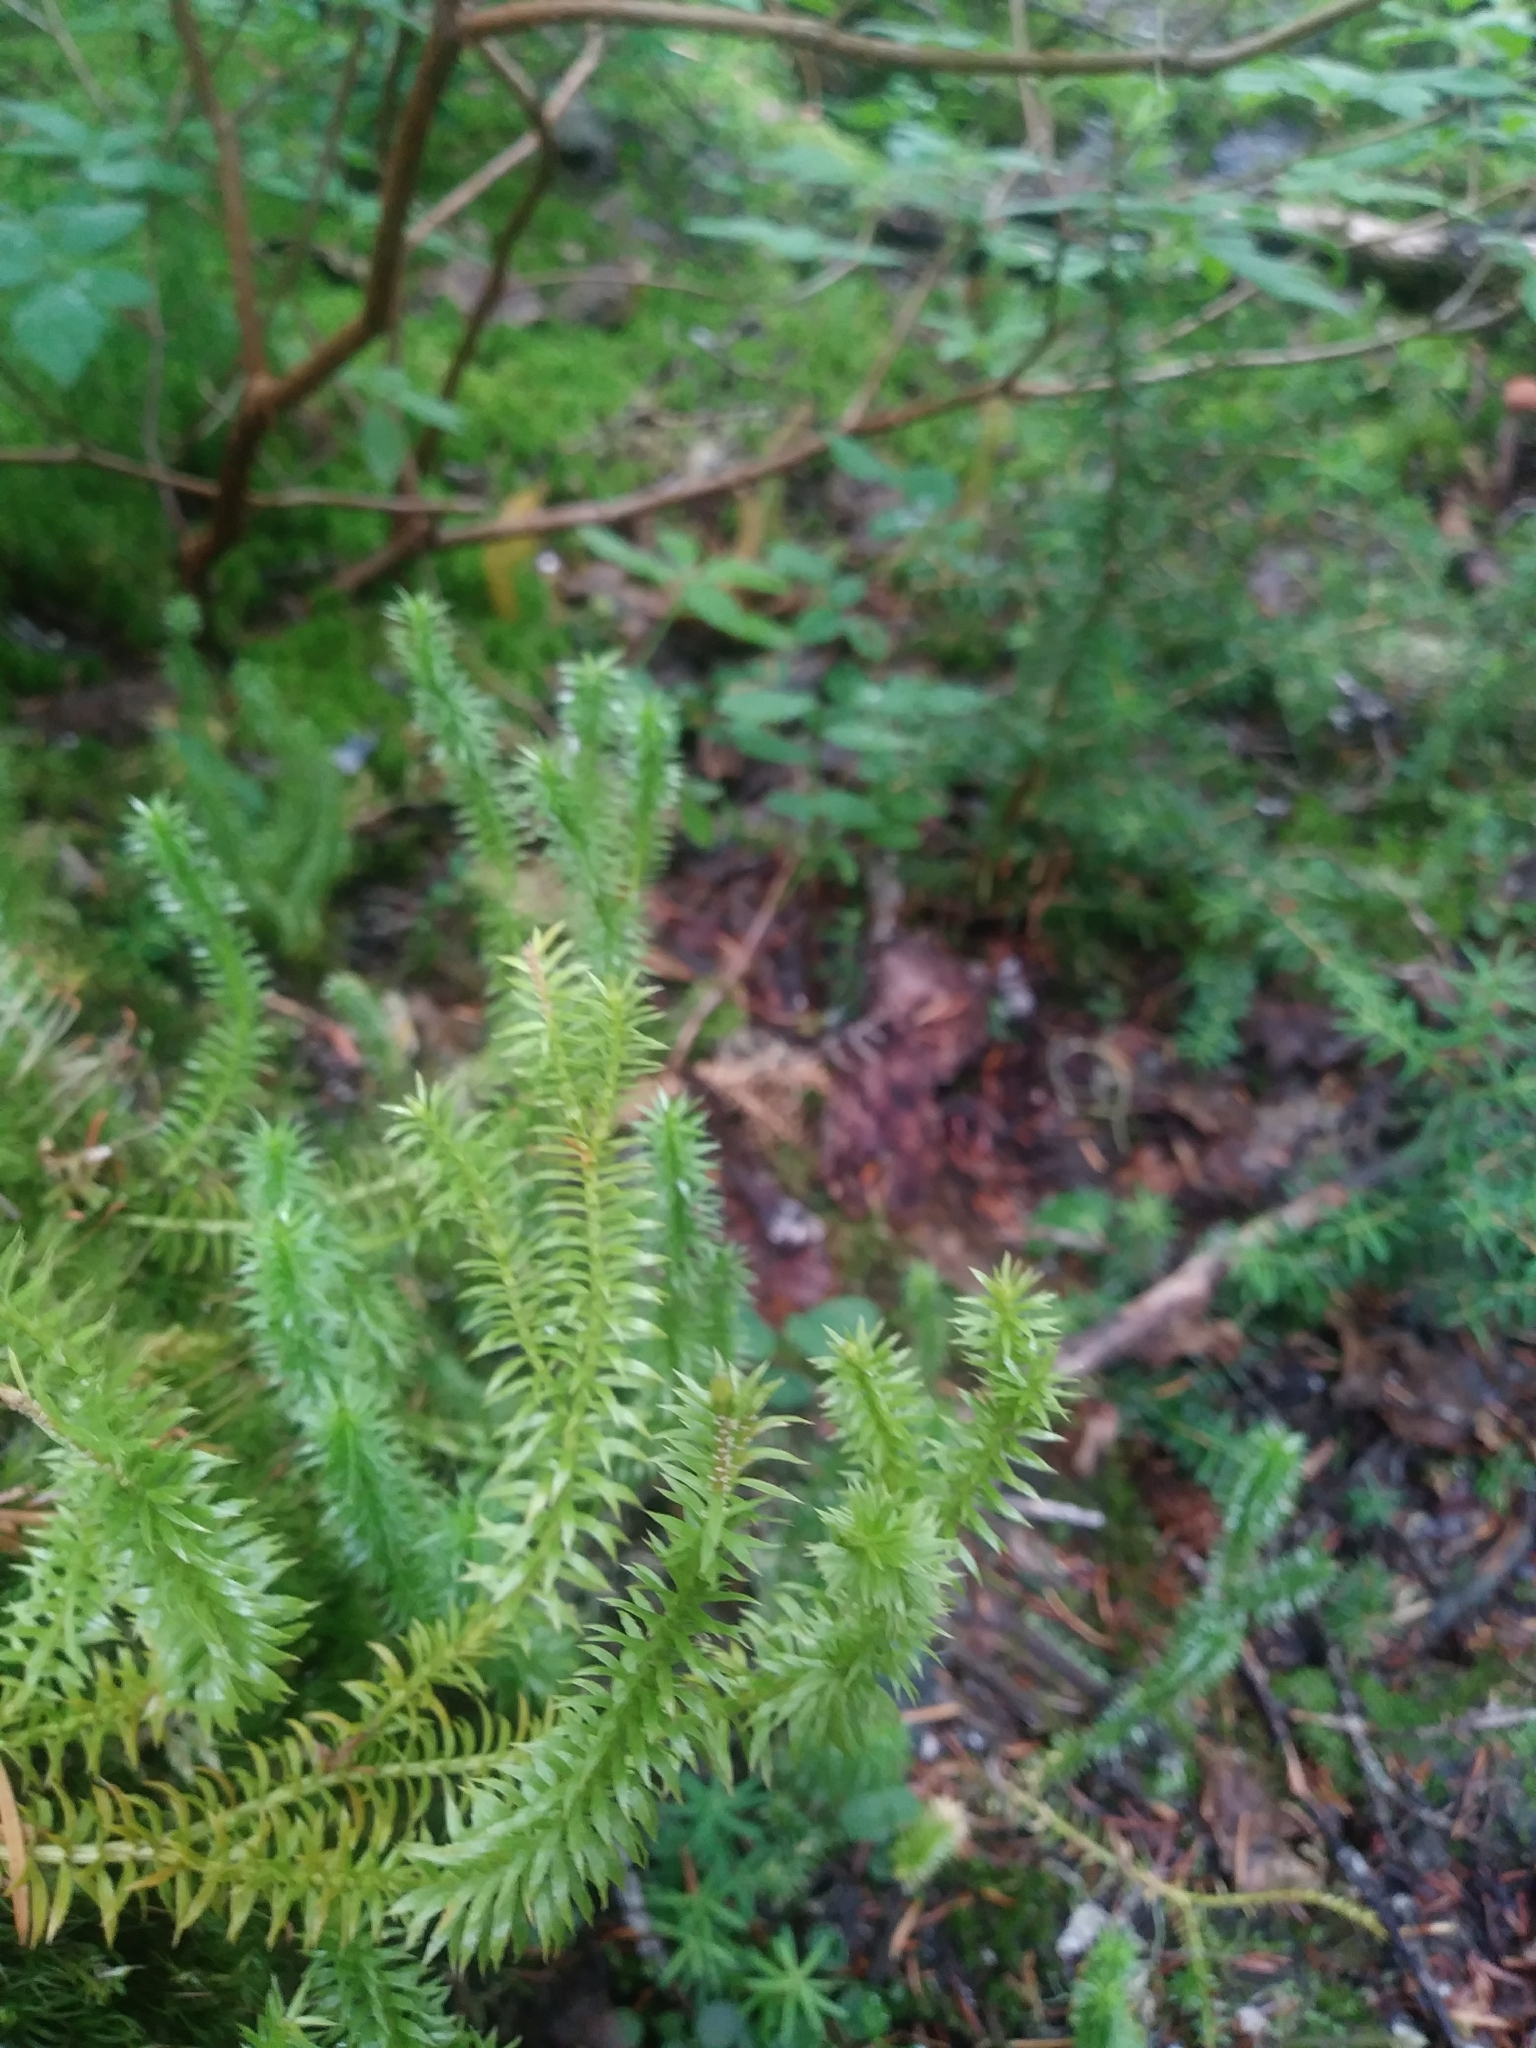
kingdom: Plantae
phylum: Tracheophyta
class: Lycopodiopsida
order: Lycopodiales
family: Lycopodiaceae
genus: Spinulum
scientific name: Spinulum annotinum
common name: Interrupted club-moss
